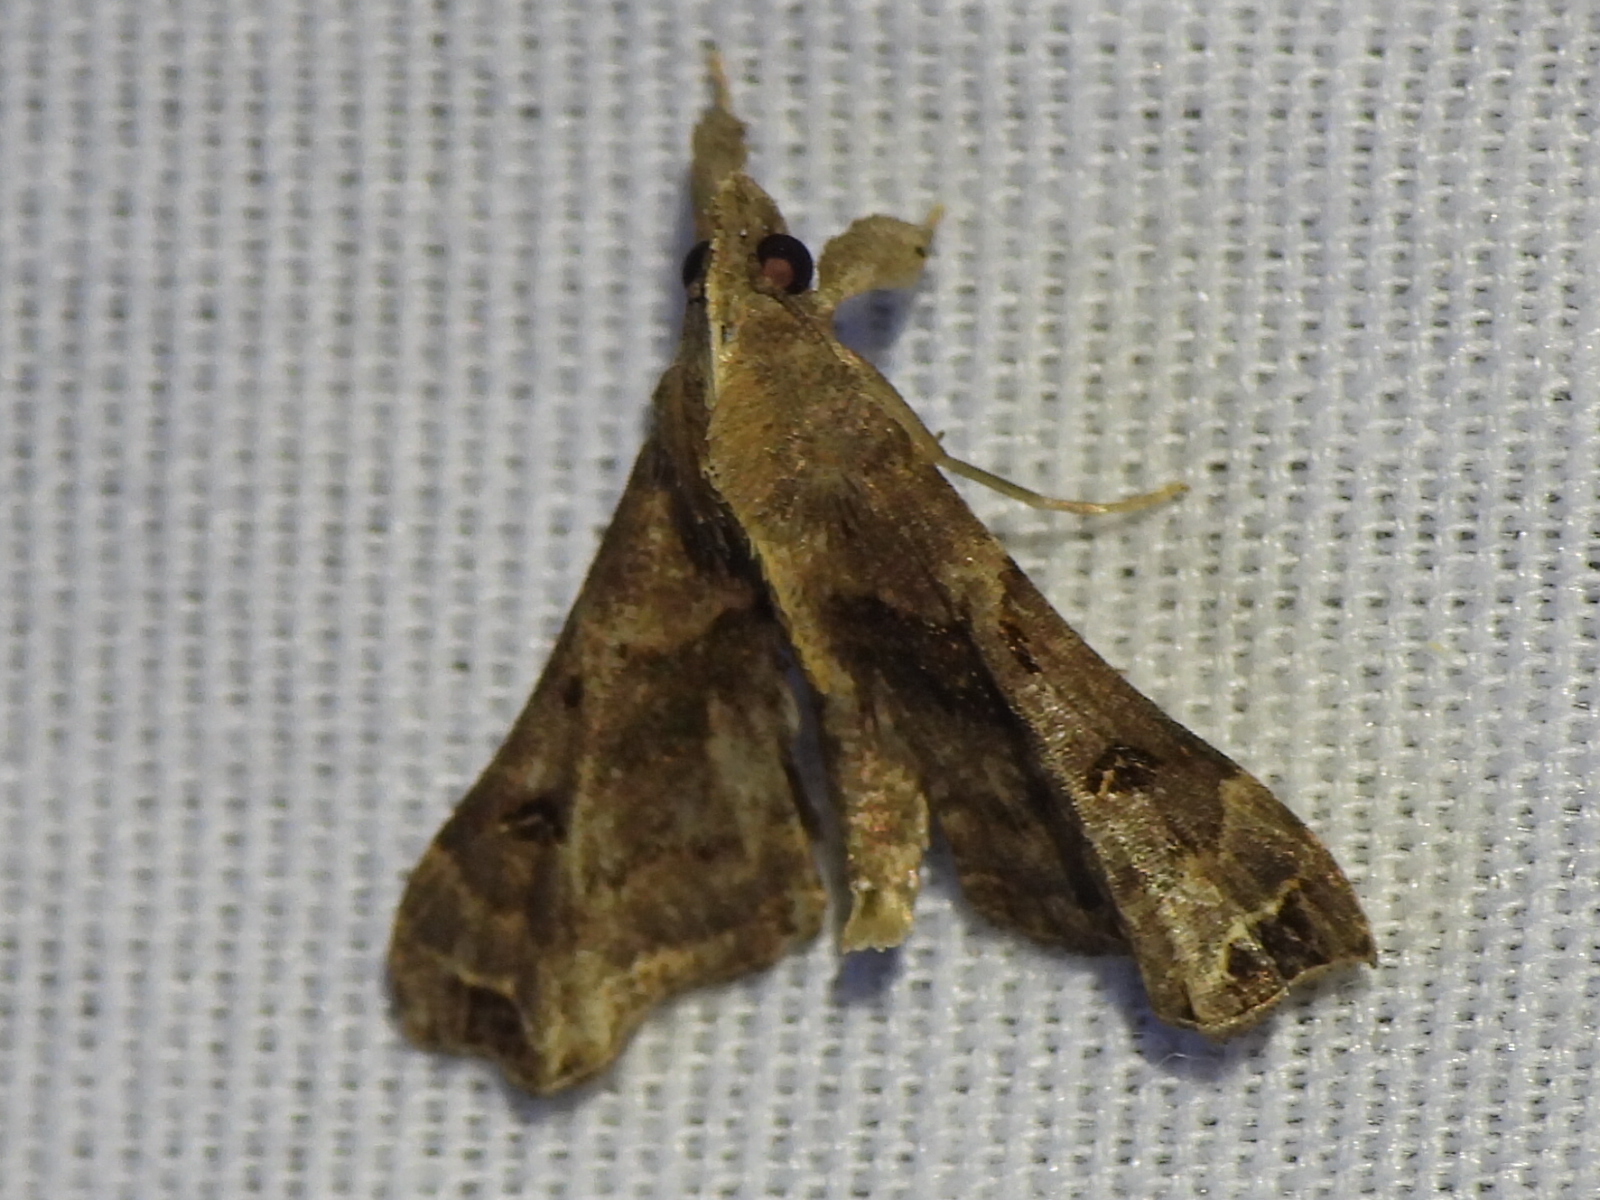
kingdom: Animalia
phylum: Arthropoda
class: Insecta
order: Lepidoptera
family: Erebidae
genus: Palthis
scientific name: Palthis asopialis
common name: Faint-spotted palthis moth
